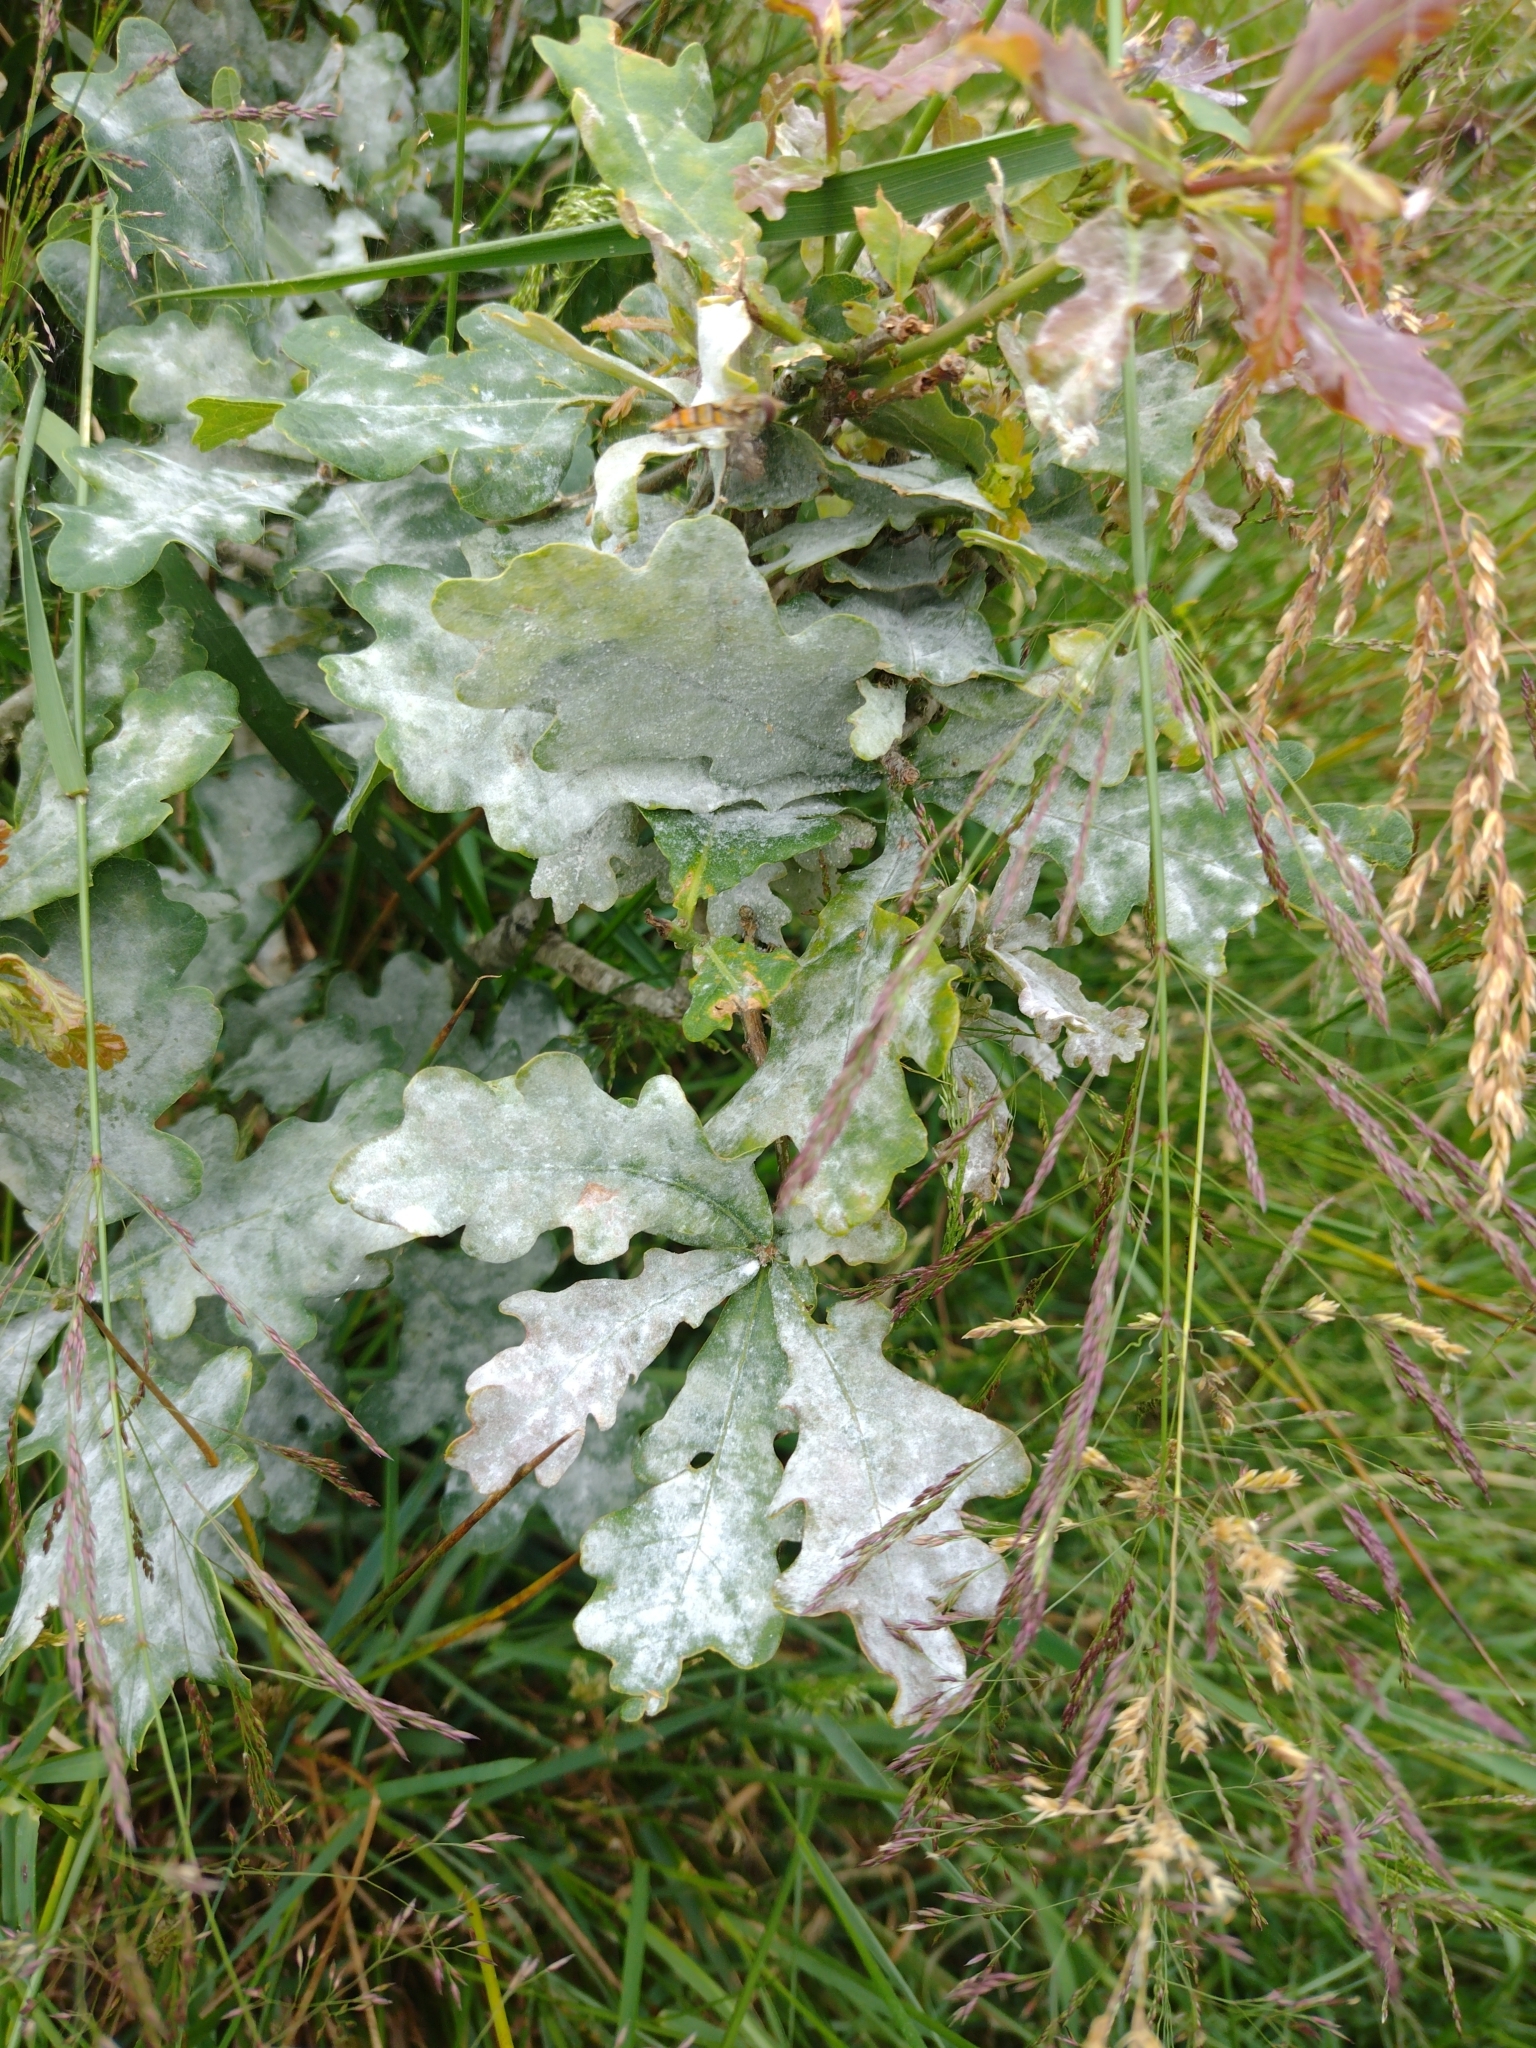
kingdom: Fungi
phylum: Ascomycota
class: Leotiomycetes
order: Helotiales
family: Erysiphaceae
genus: Erysiphe
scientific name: Erysiphe alphitoides
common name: Oak mildew
